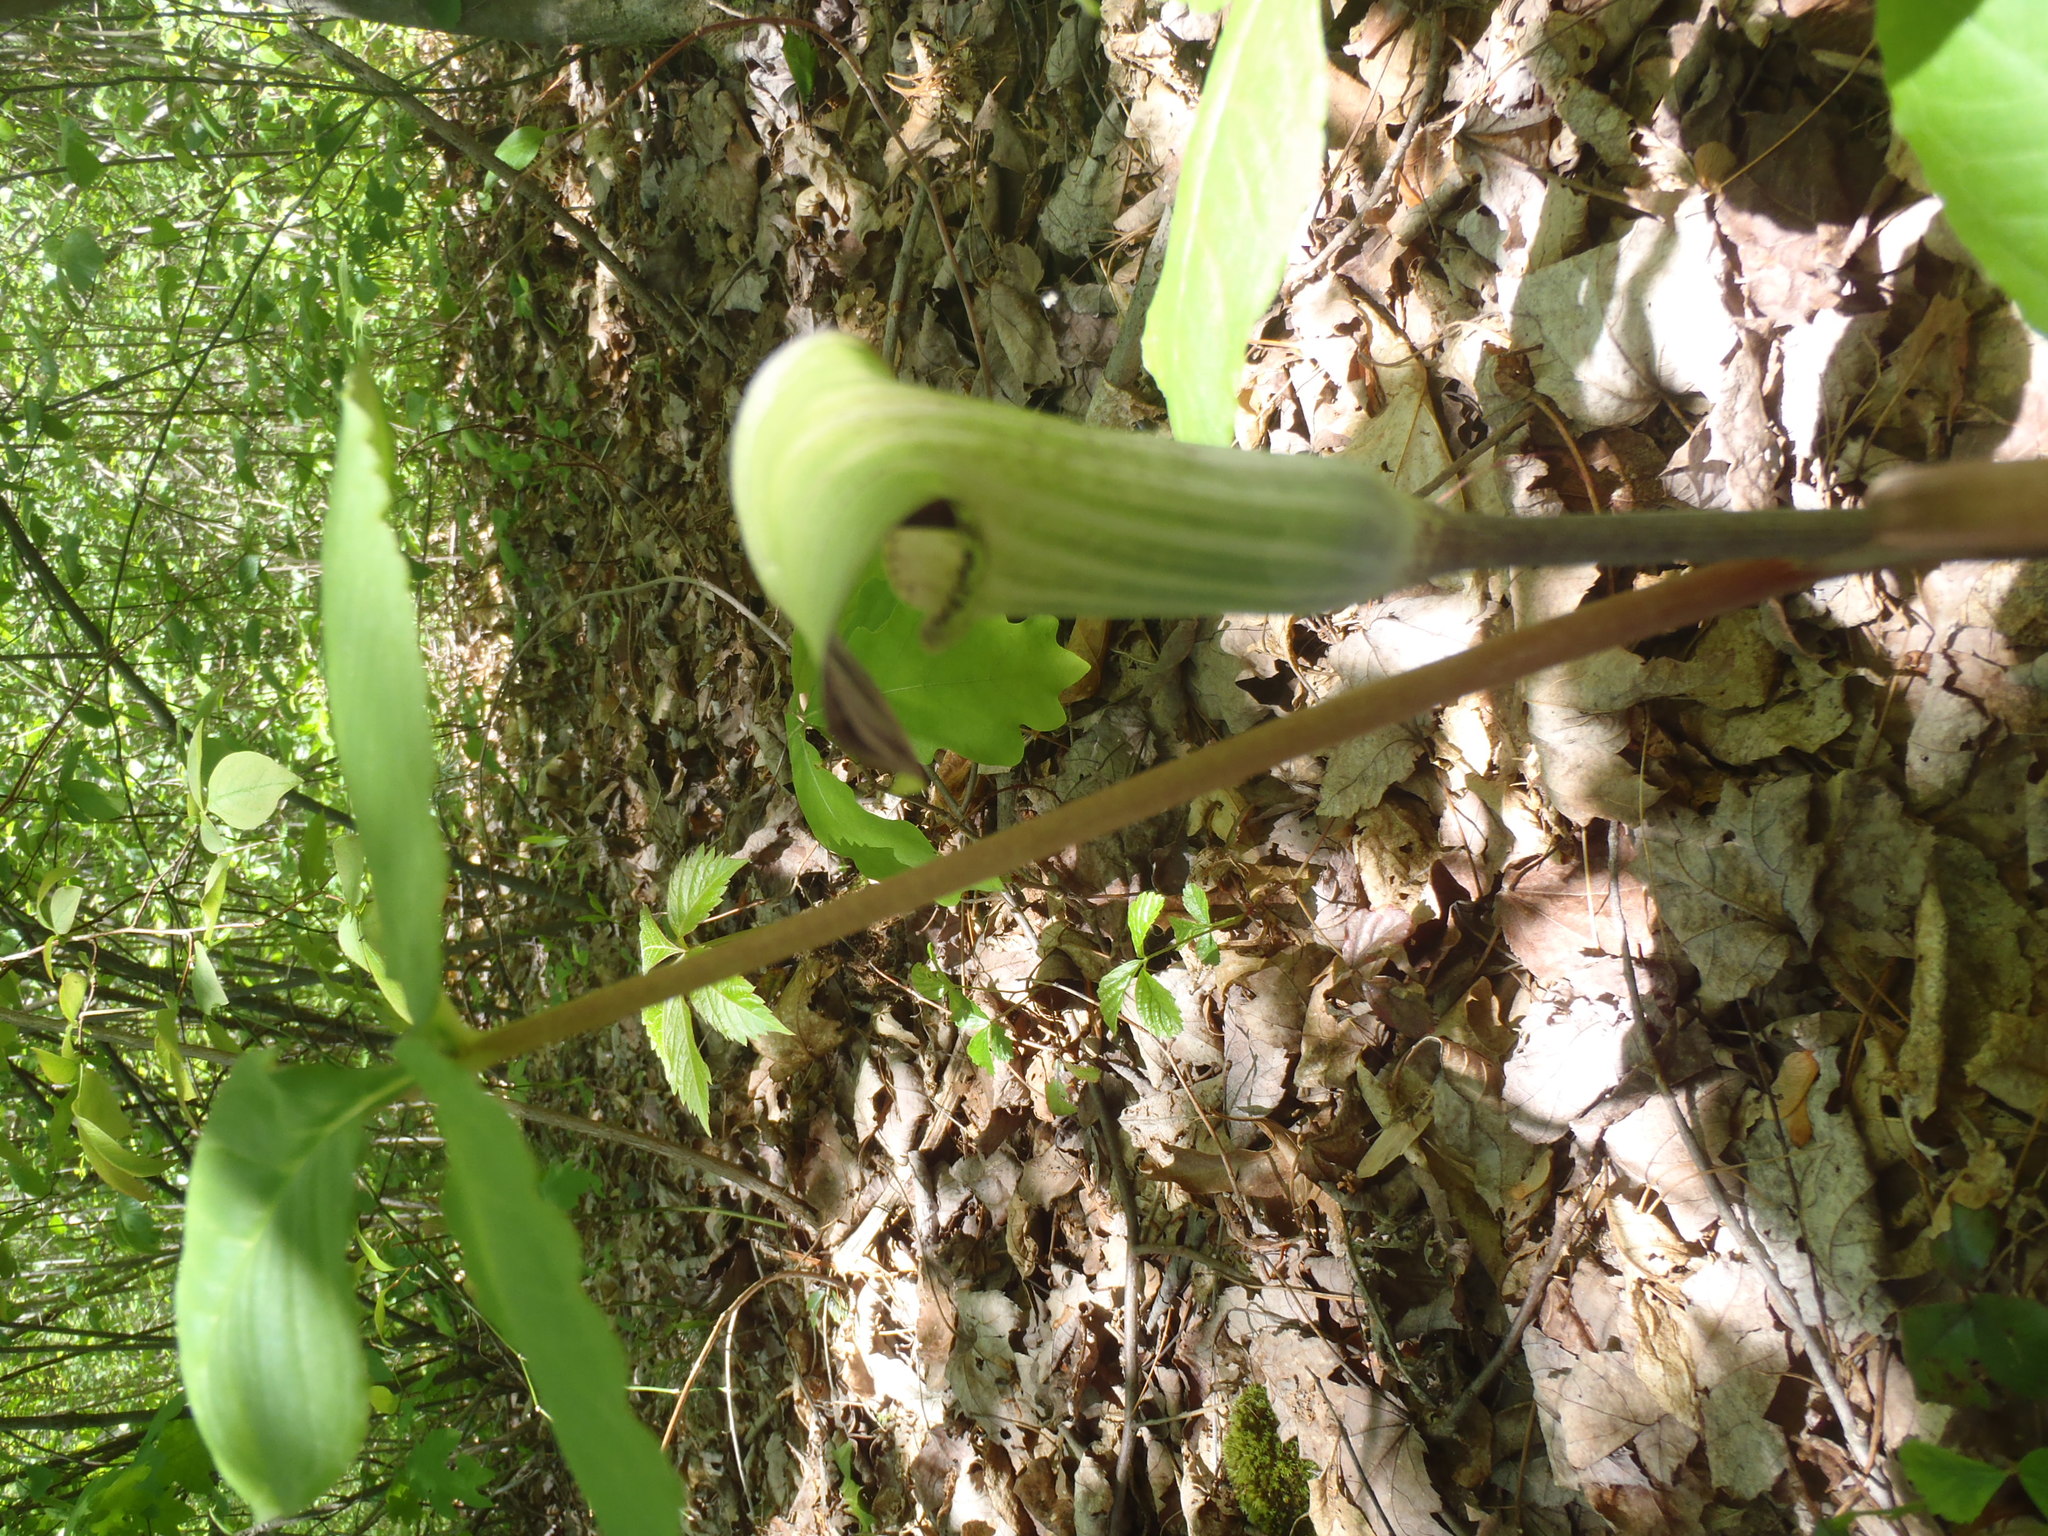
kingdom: Plantae
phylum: Tracheophyta
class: Liliopsida
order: Alismatales
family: Araceae
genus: Arisaema
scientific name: Arisaema triphyllum
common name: Jack-in-the-pulpit
